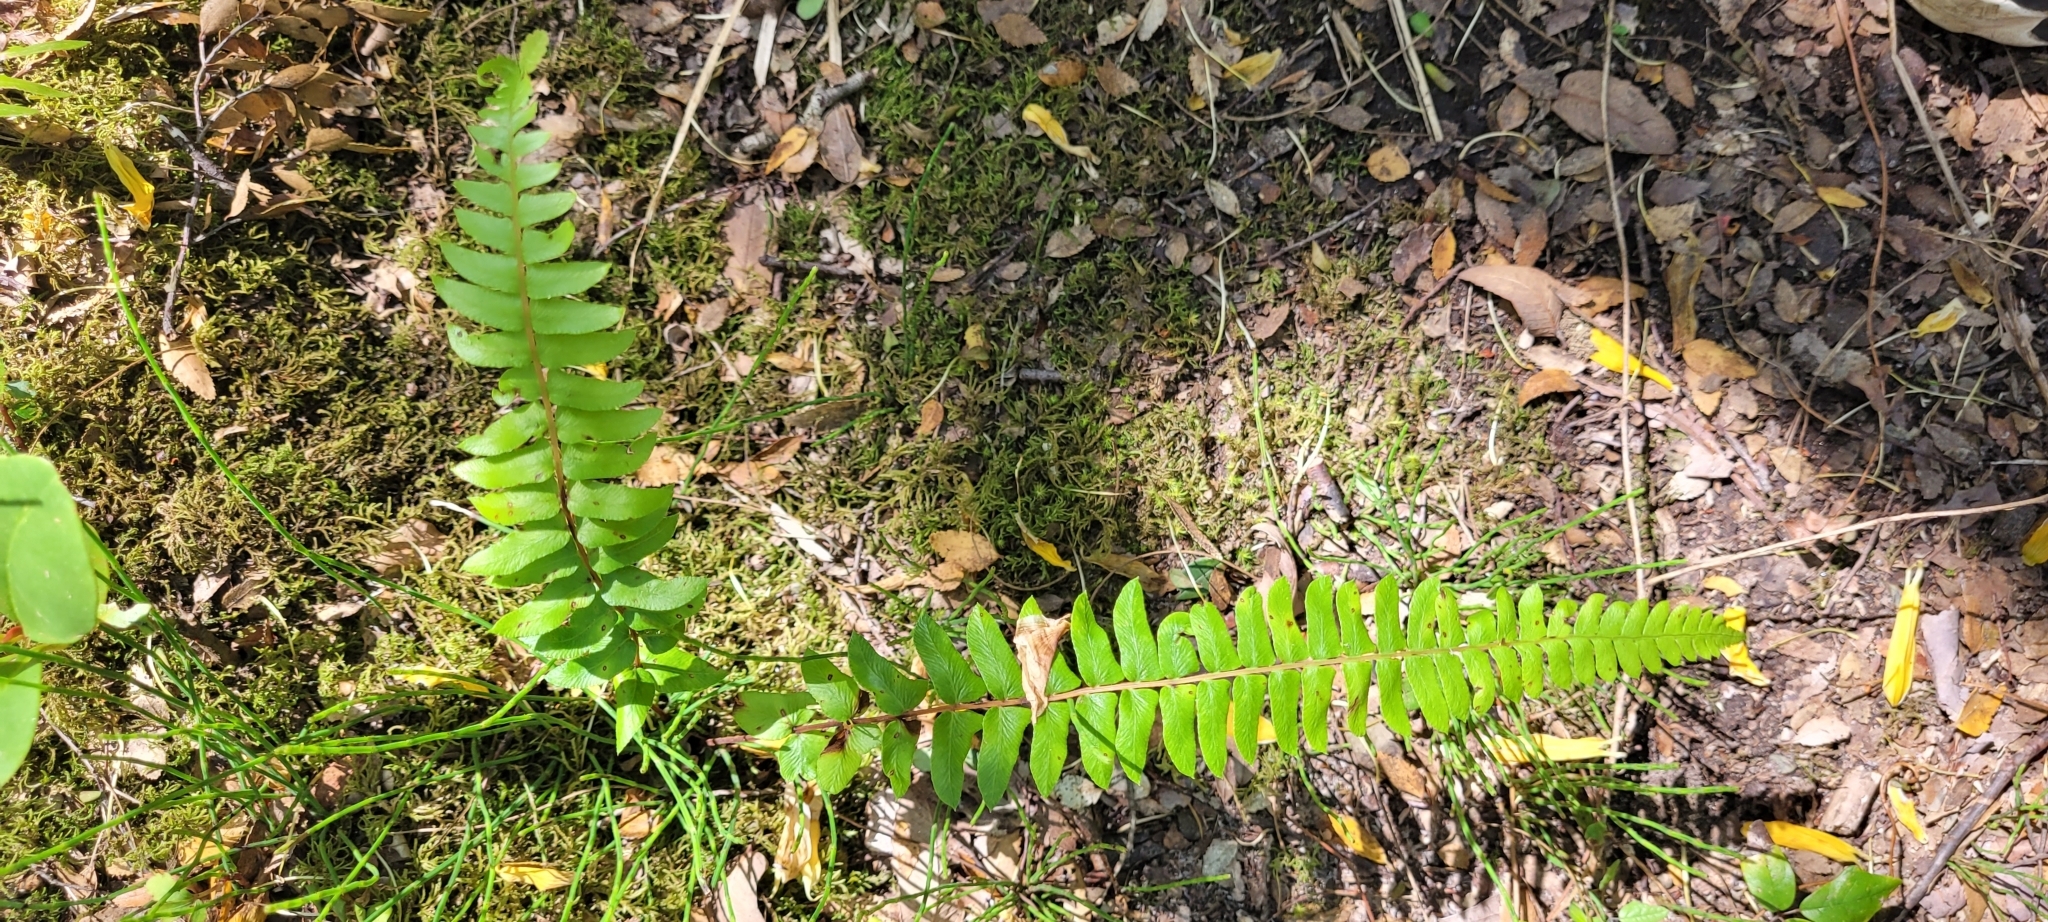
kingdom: Plantae
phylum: Tracheophyta
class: Polypodiopsida
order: Polypodiales
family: Blechnaceae
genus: Blechnum
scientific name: Blechnum hastatum
